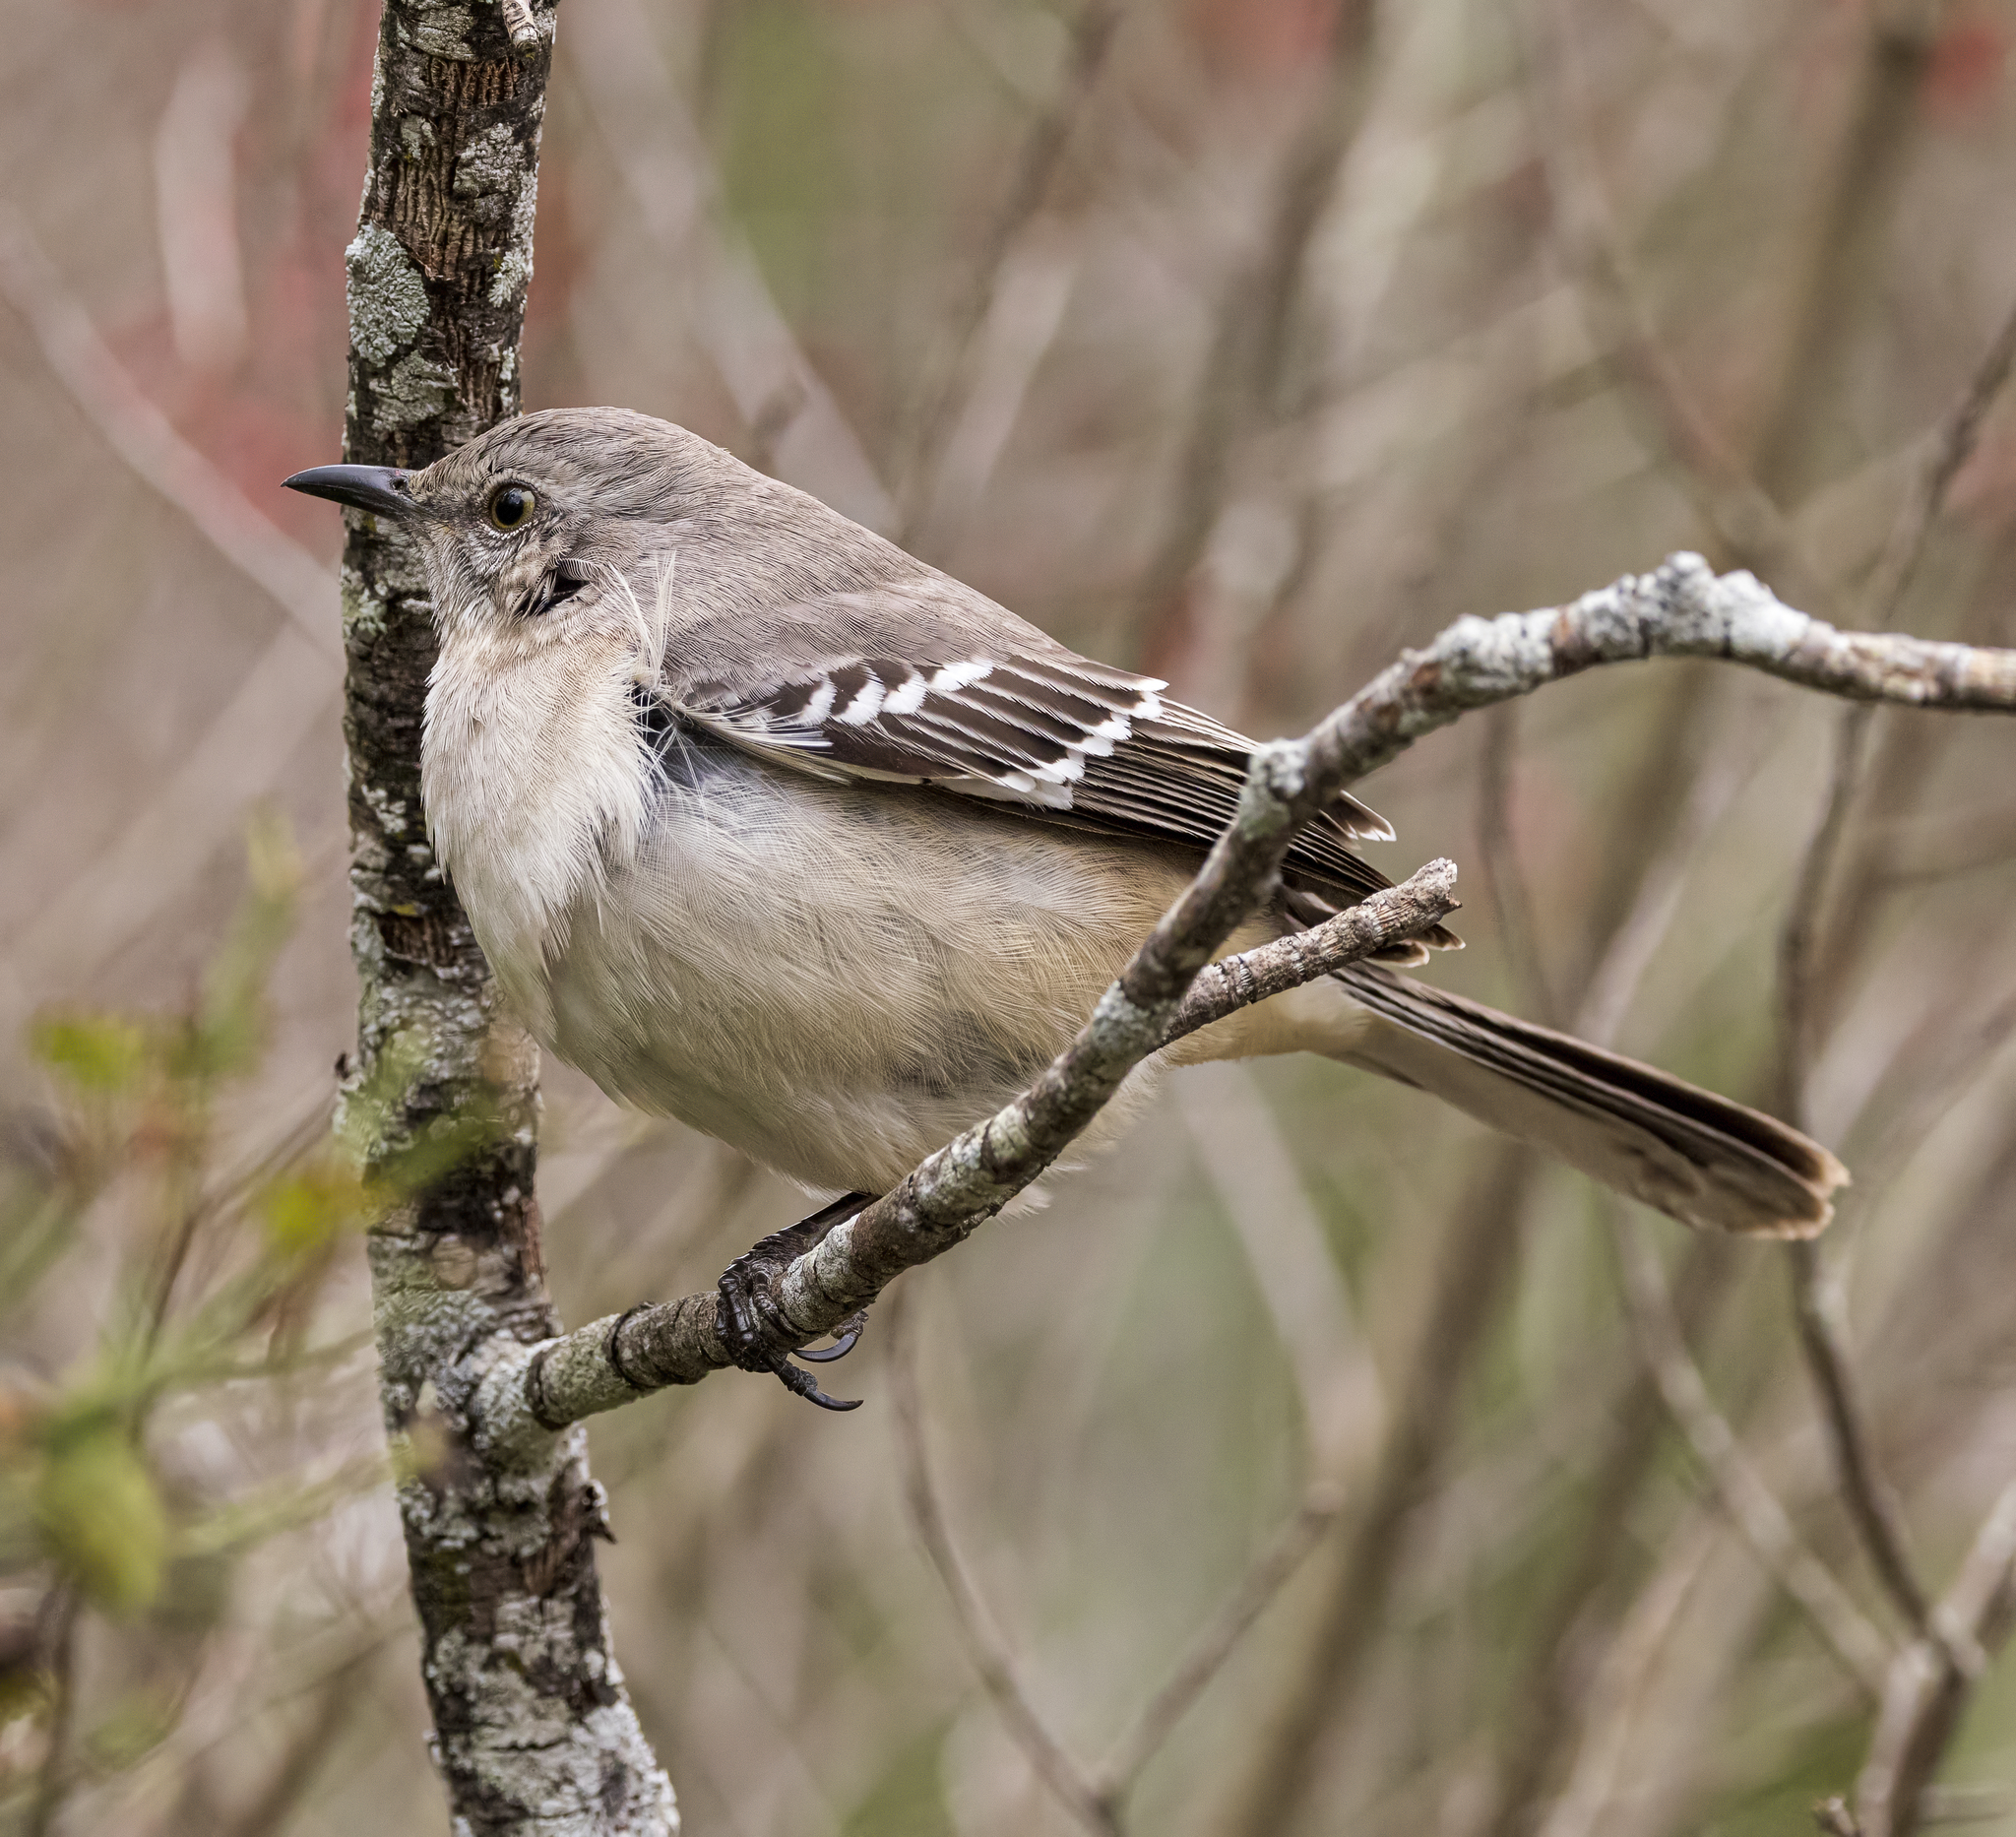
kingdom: Animalia
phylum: Chordata
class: Aves
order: Passeriformes
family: Mimidae
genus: Mimus
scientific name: Mimus polyglottos
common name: Northern mockingbird
